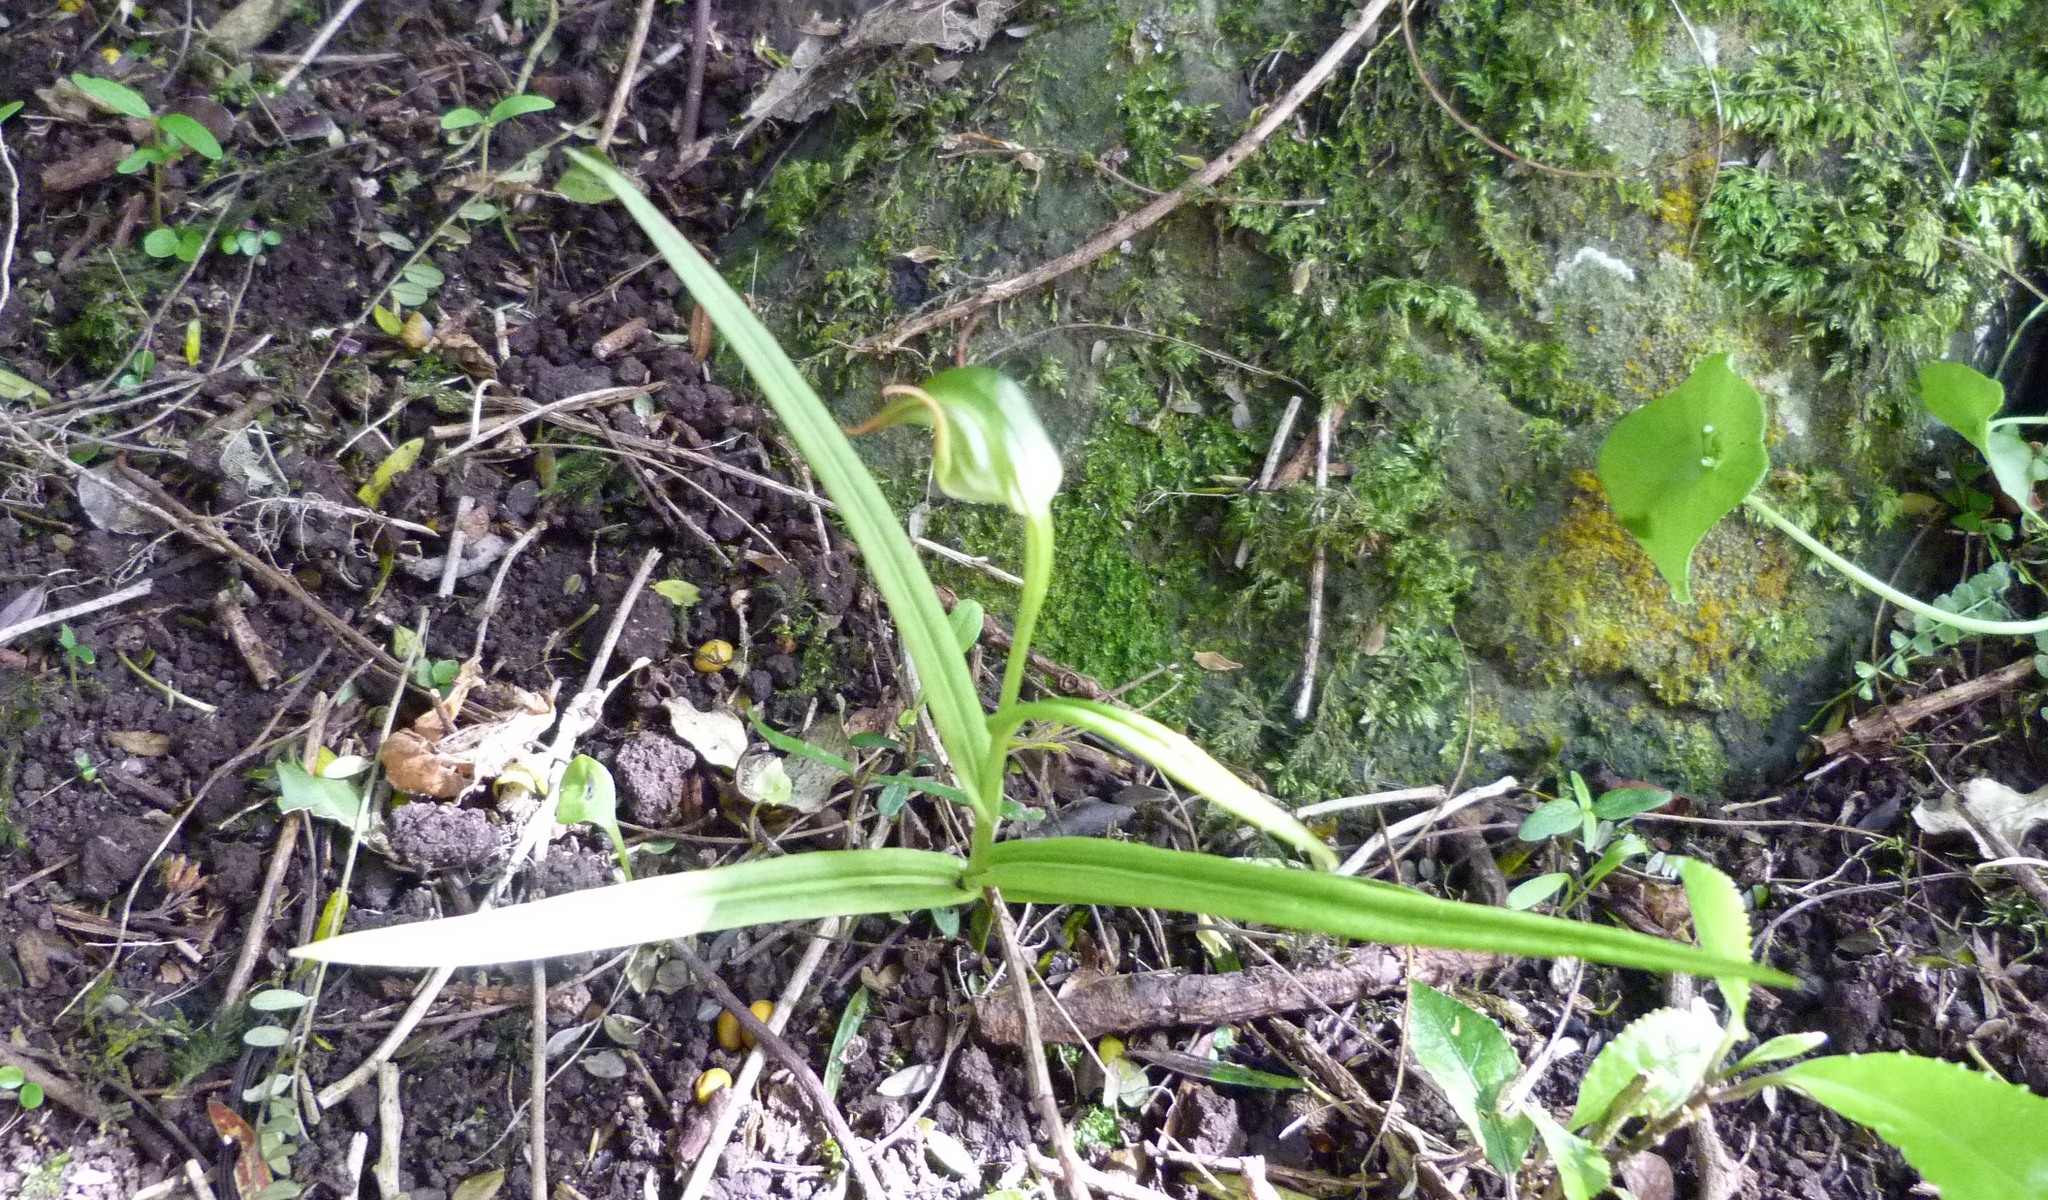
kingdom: Plantae
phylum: Tracheophyta
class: Liliopsida
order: Asparagales
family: Orchidaceae
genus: Pterostylis
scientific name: Pterostylis graminea
